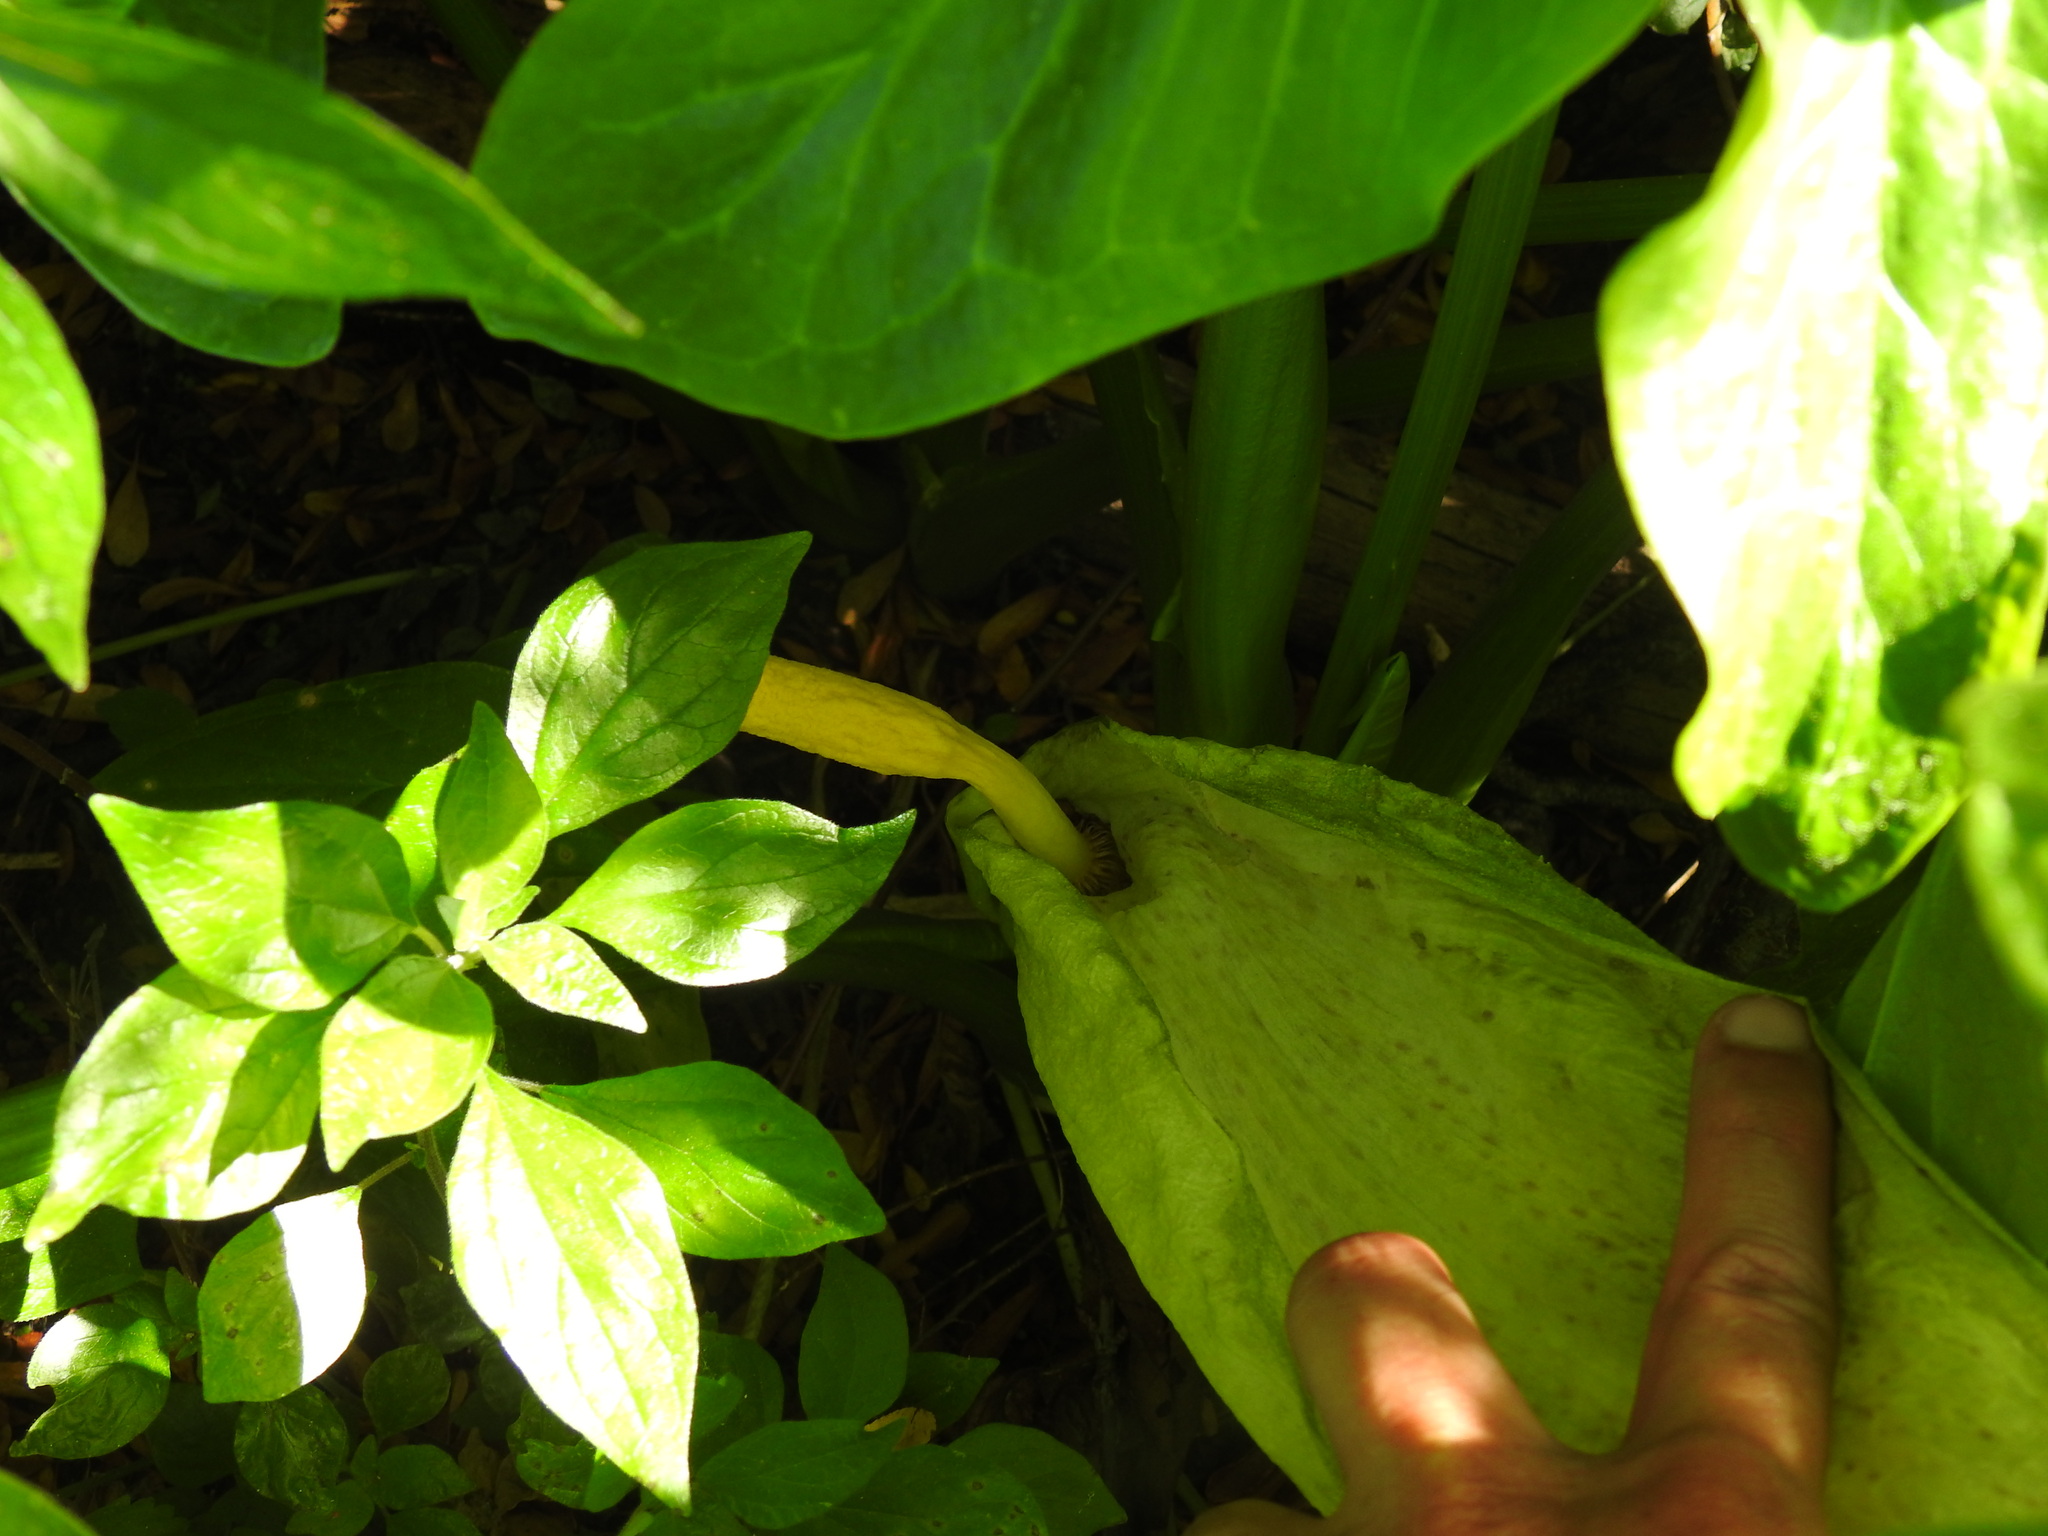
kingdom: Plantae
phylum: Tracheophyta
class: Liliopsida
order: Alismatales
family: Araceae
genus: Arum
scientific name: Arum italicum
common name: Italian lords-and-ladies
